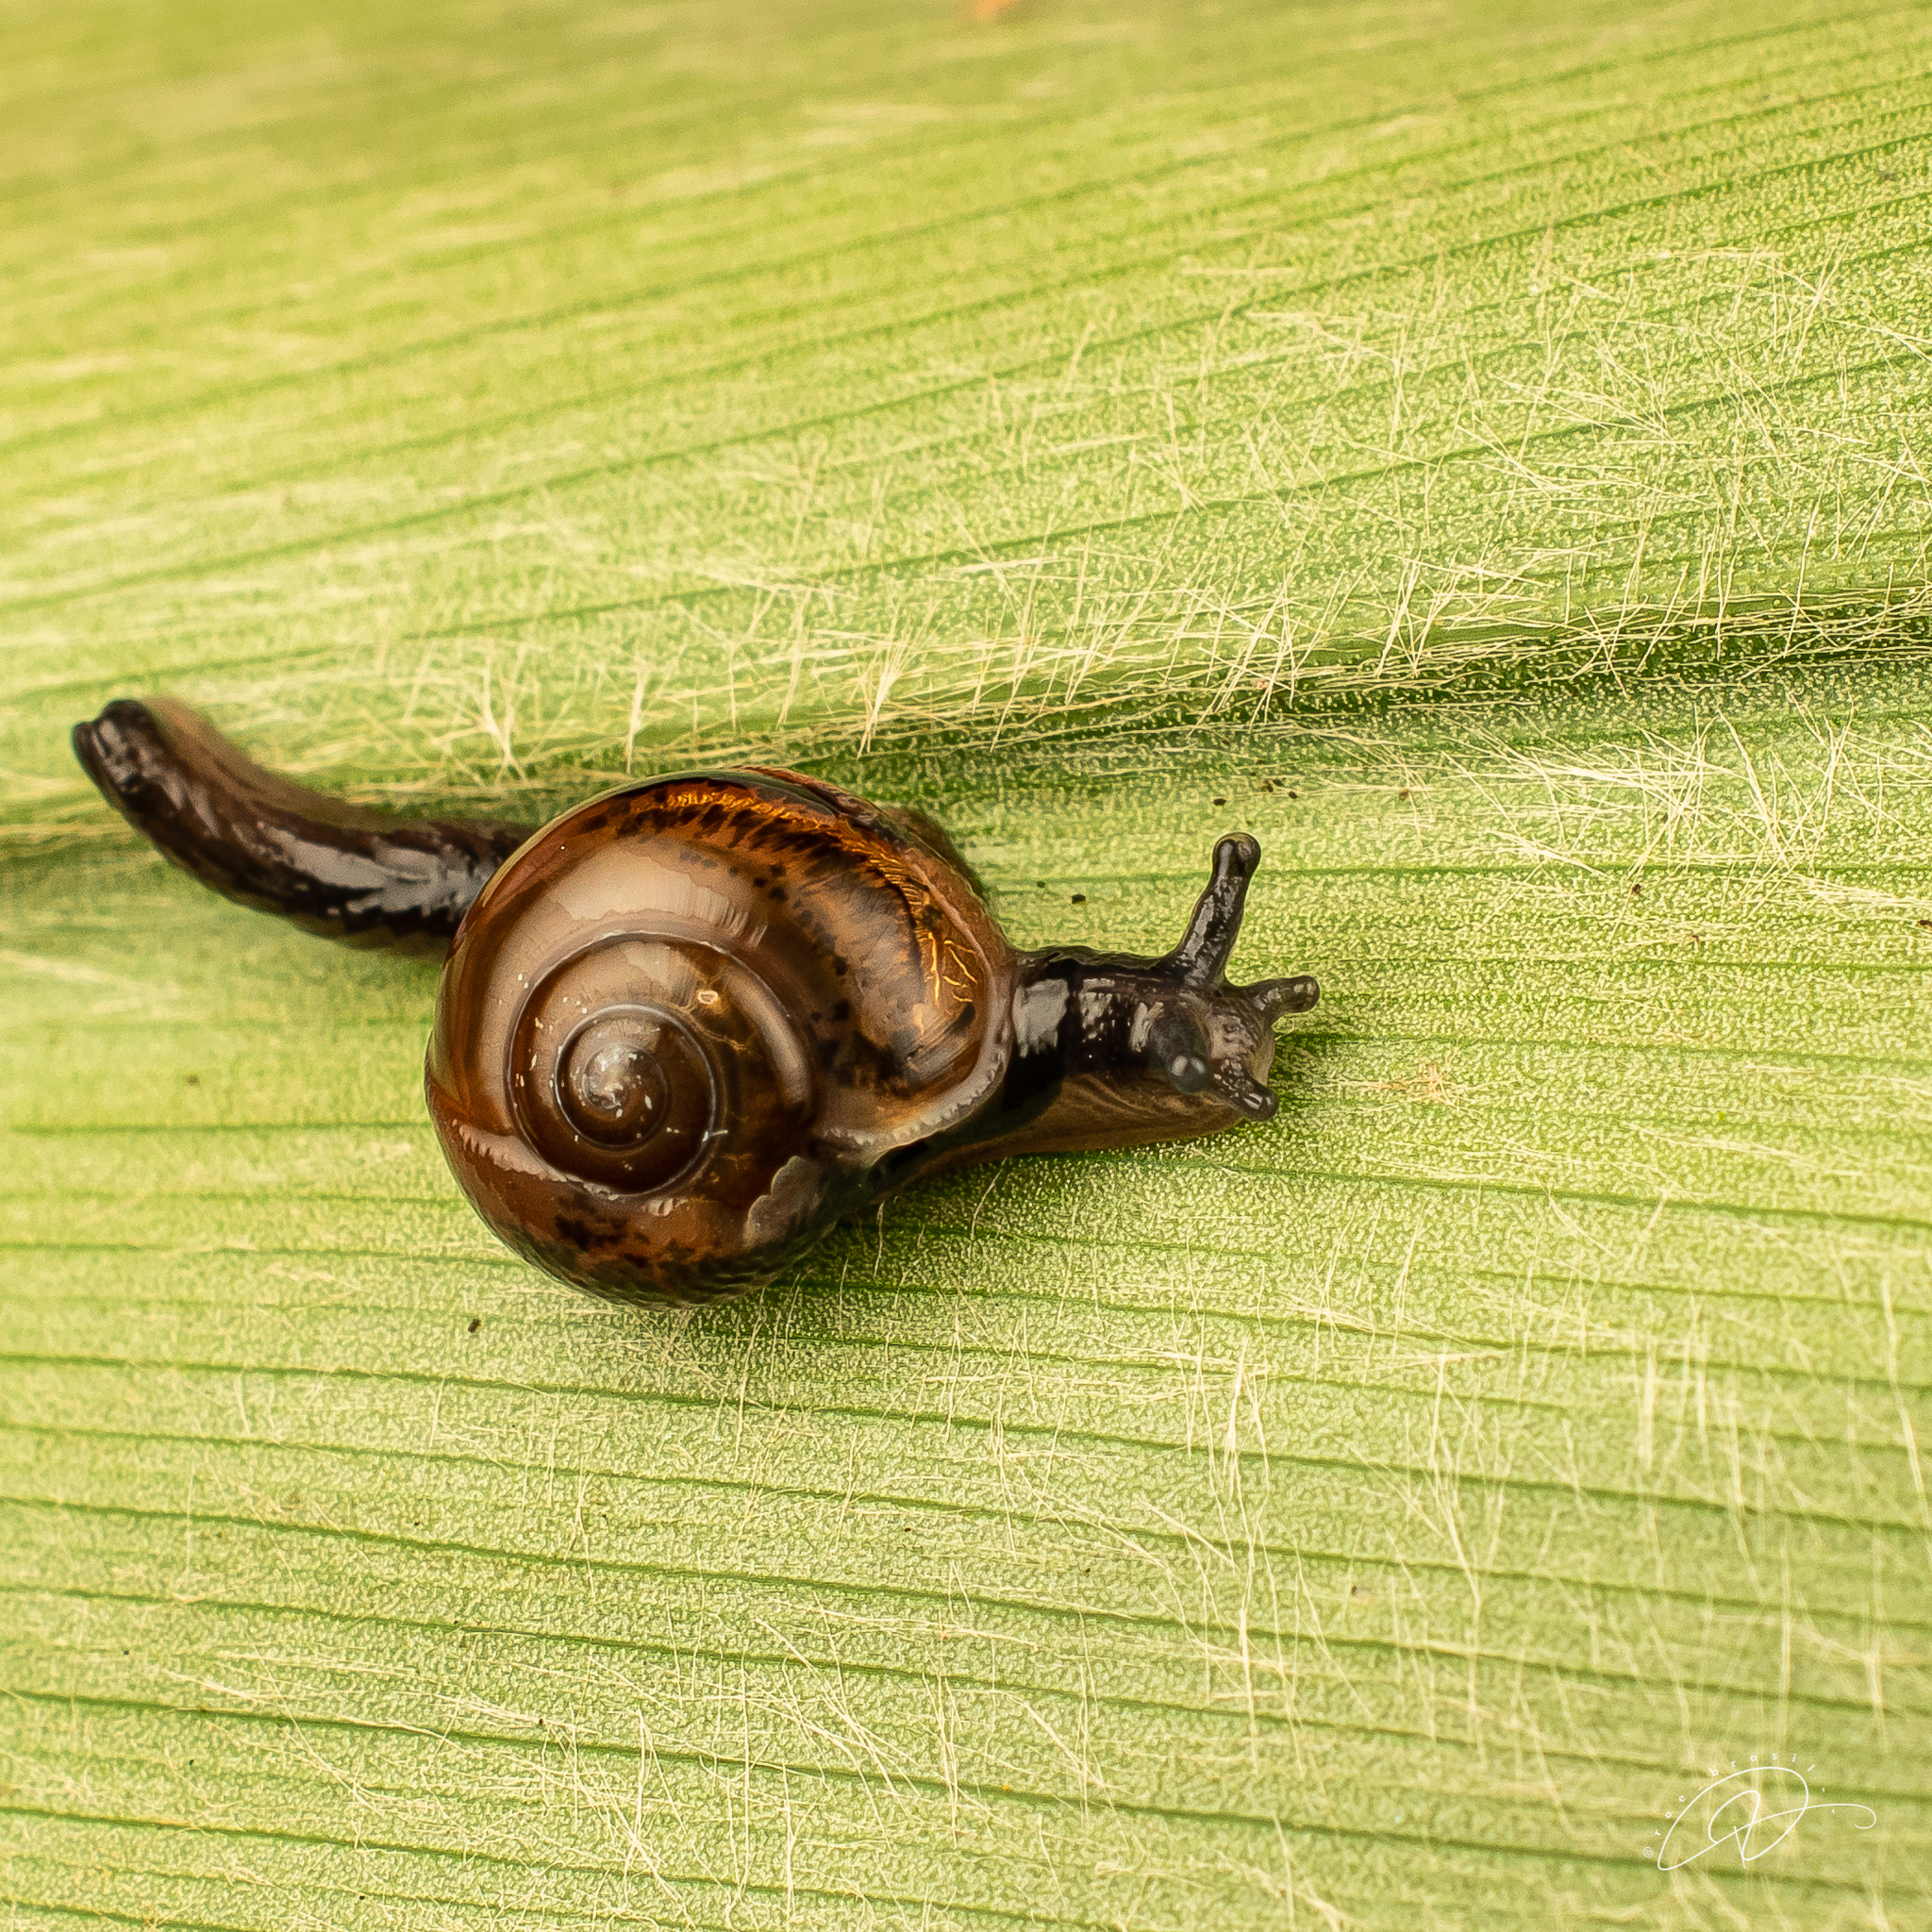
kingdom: Animalia
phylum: Mollusca
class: Gastropoda
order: Stylommatophora
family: Helicarionidae
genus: Ovachlamys
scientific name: Ovachlamys fulgens
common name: Jumping snail
